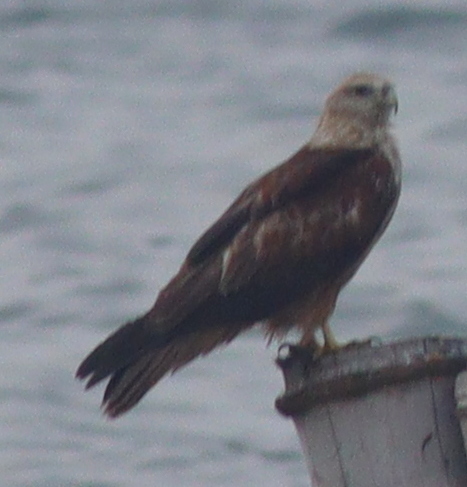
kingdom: Animalia
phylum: Chordata
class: Aves
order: Accipitriformes
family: Accipitridae
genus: Haliastur
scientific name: Haliastur indus
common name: Brahminy kite
